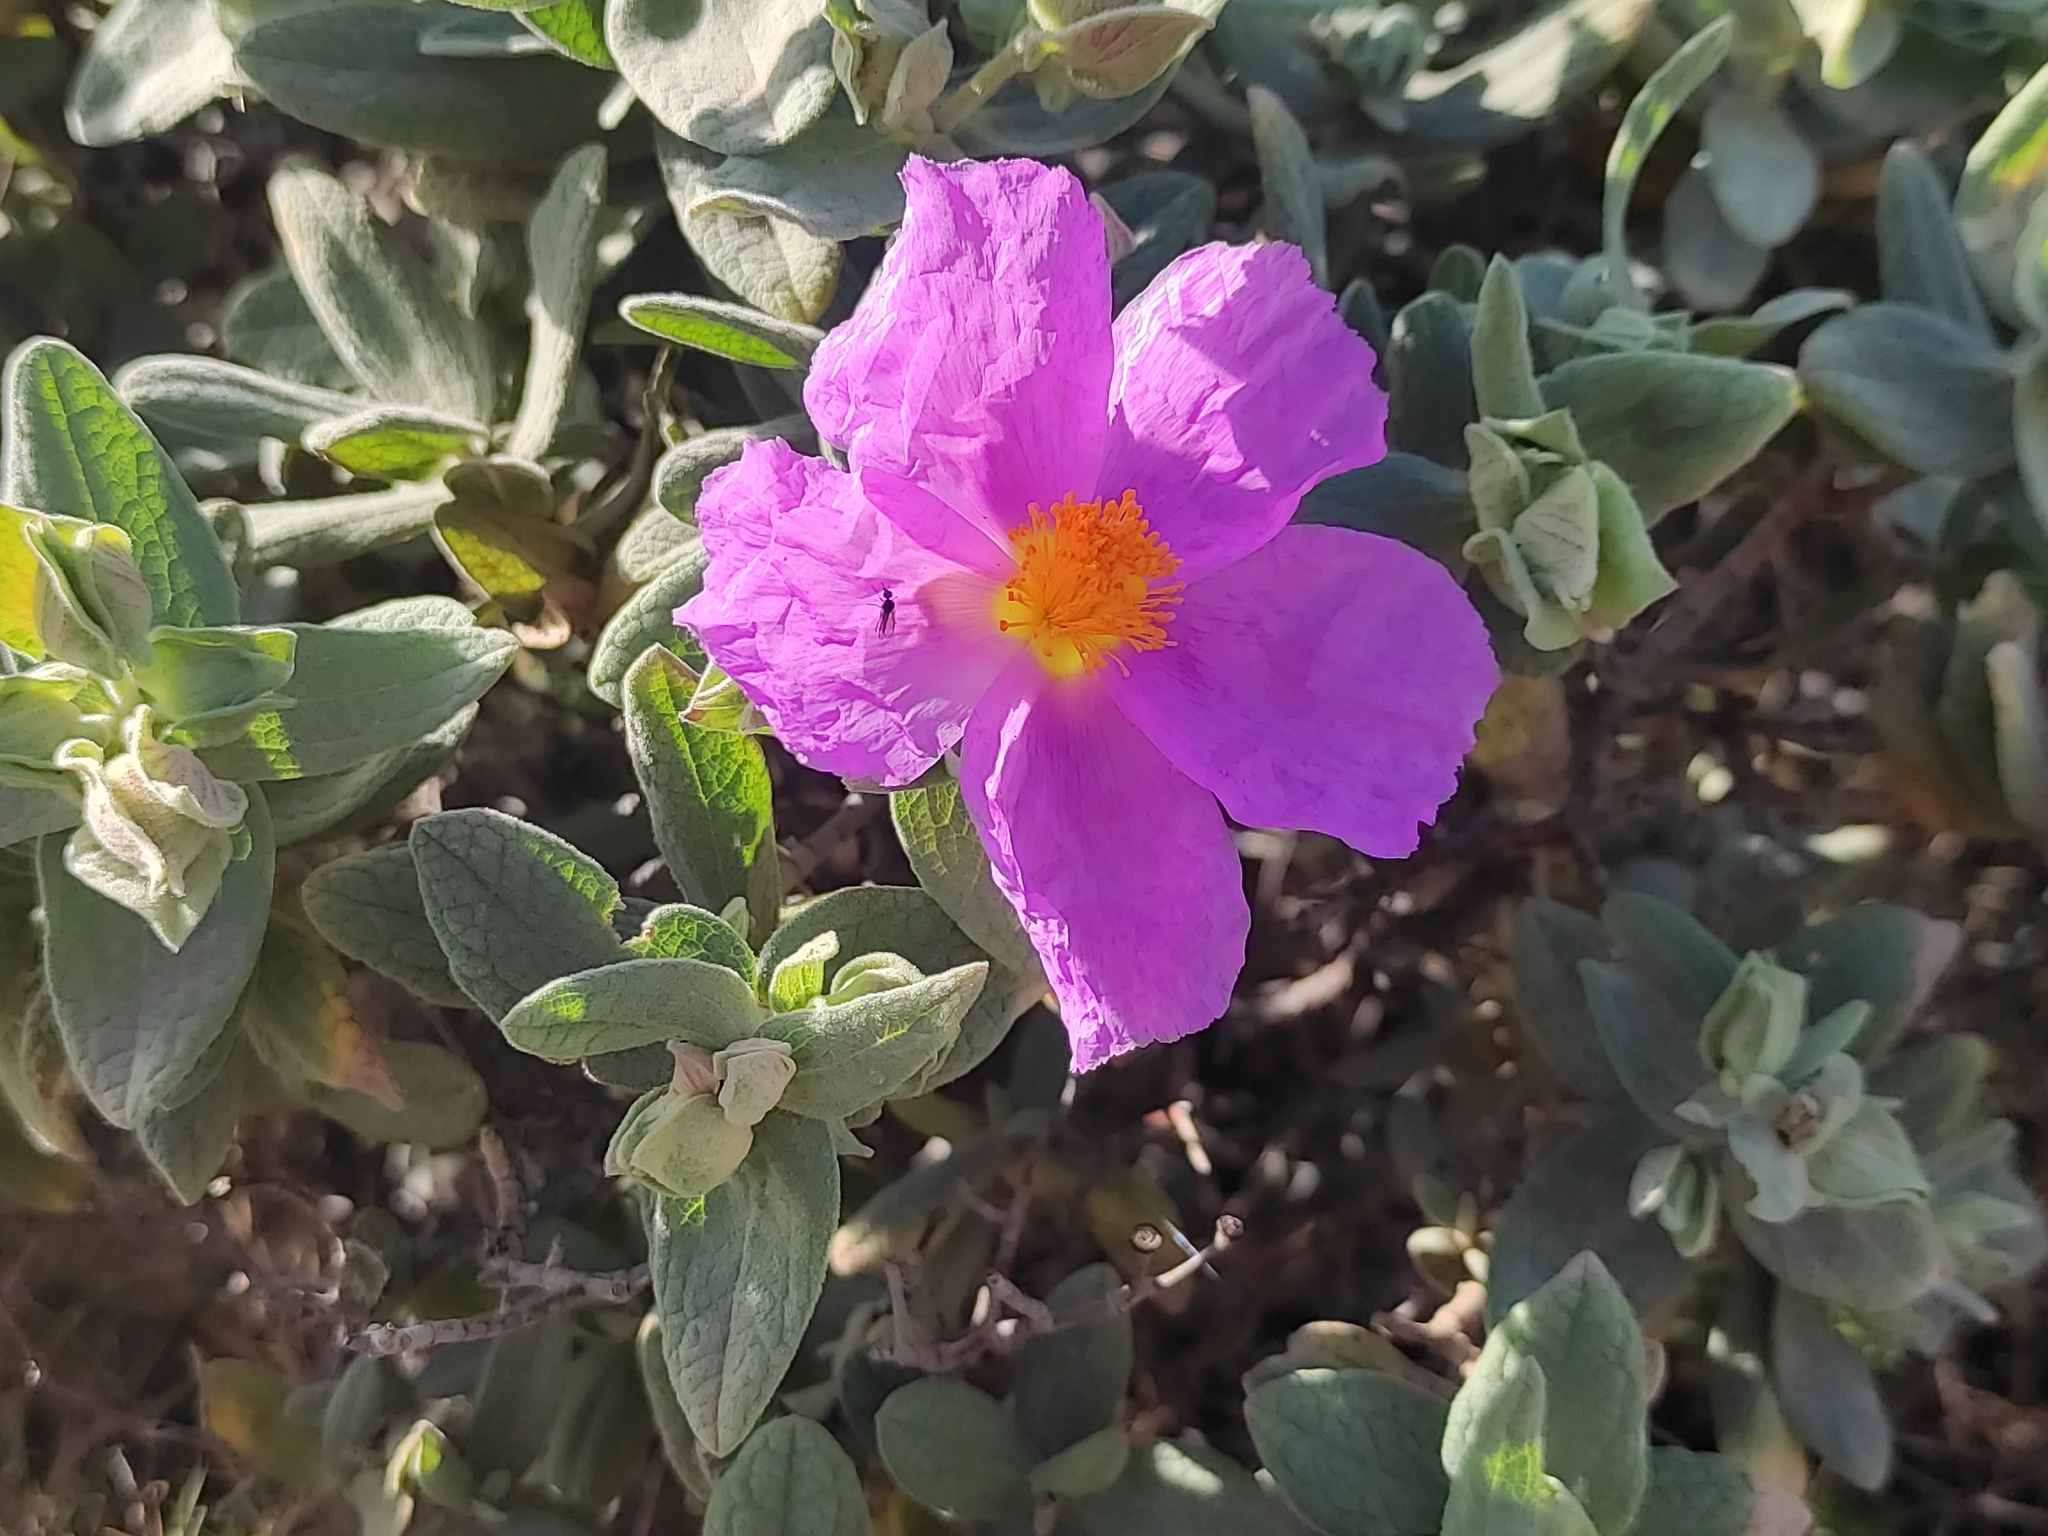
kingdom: Plantae
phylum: Tracheophyta
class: Magnoliopsida
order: Malvales
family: Cistaceae
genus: Cistus
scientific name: Cistus albidus
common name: White-leaf rock-rose
